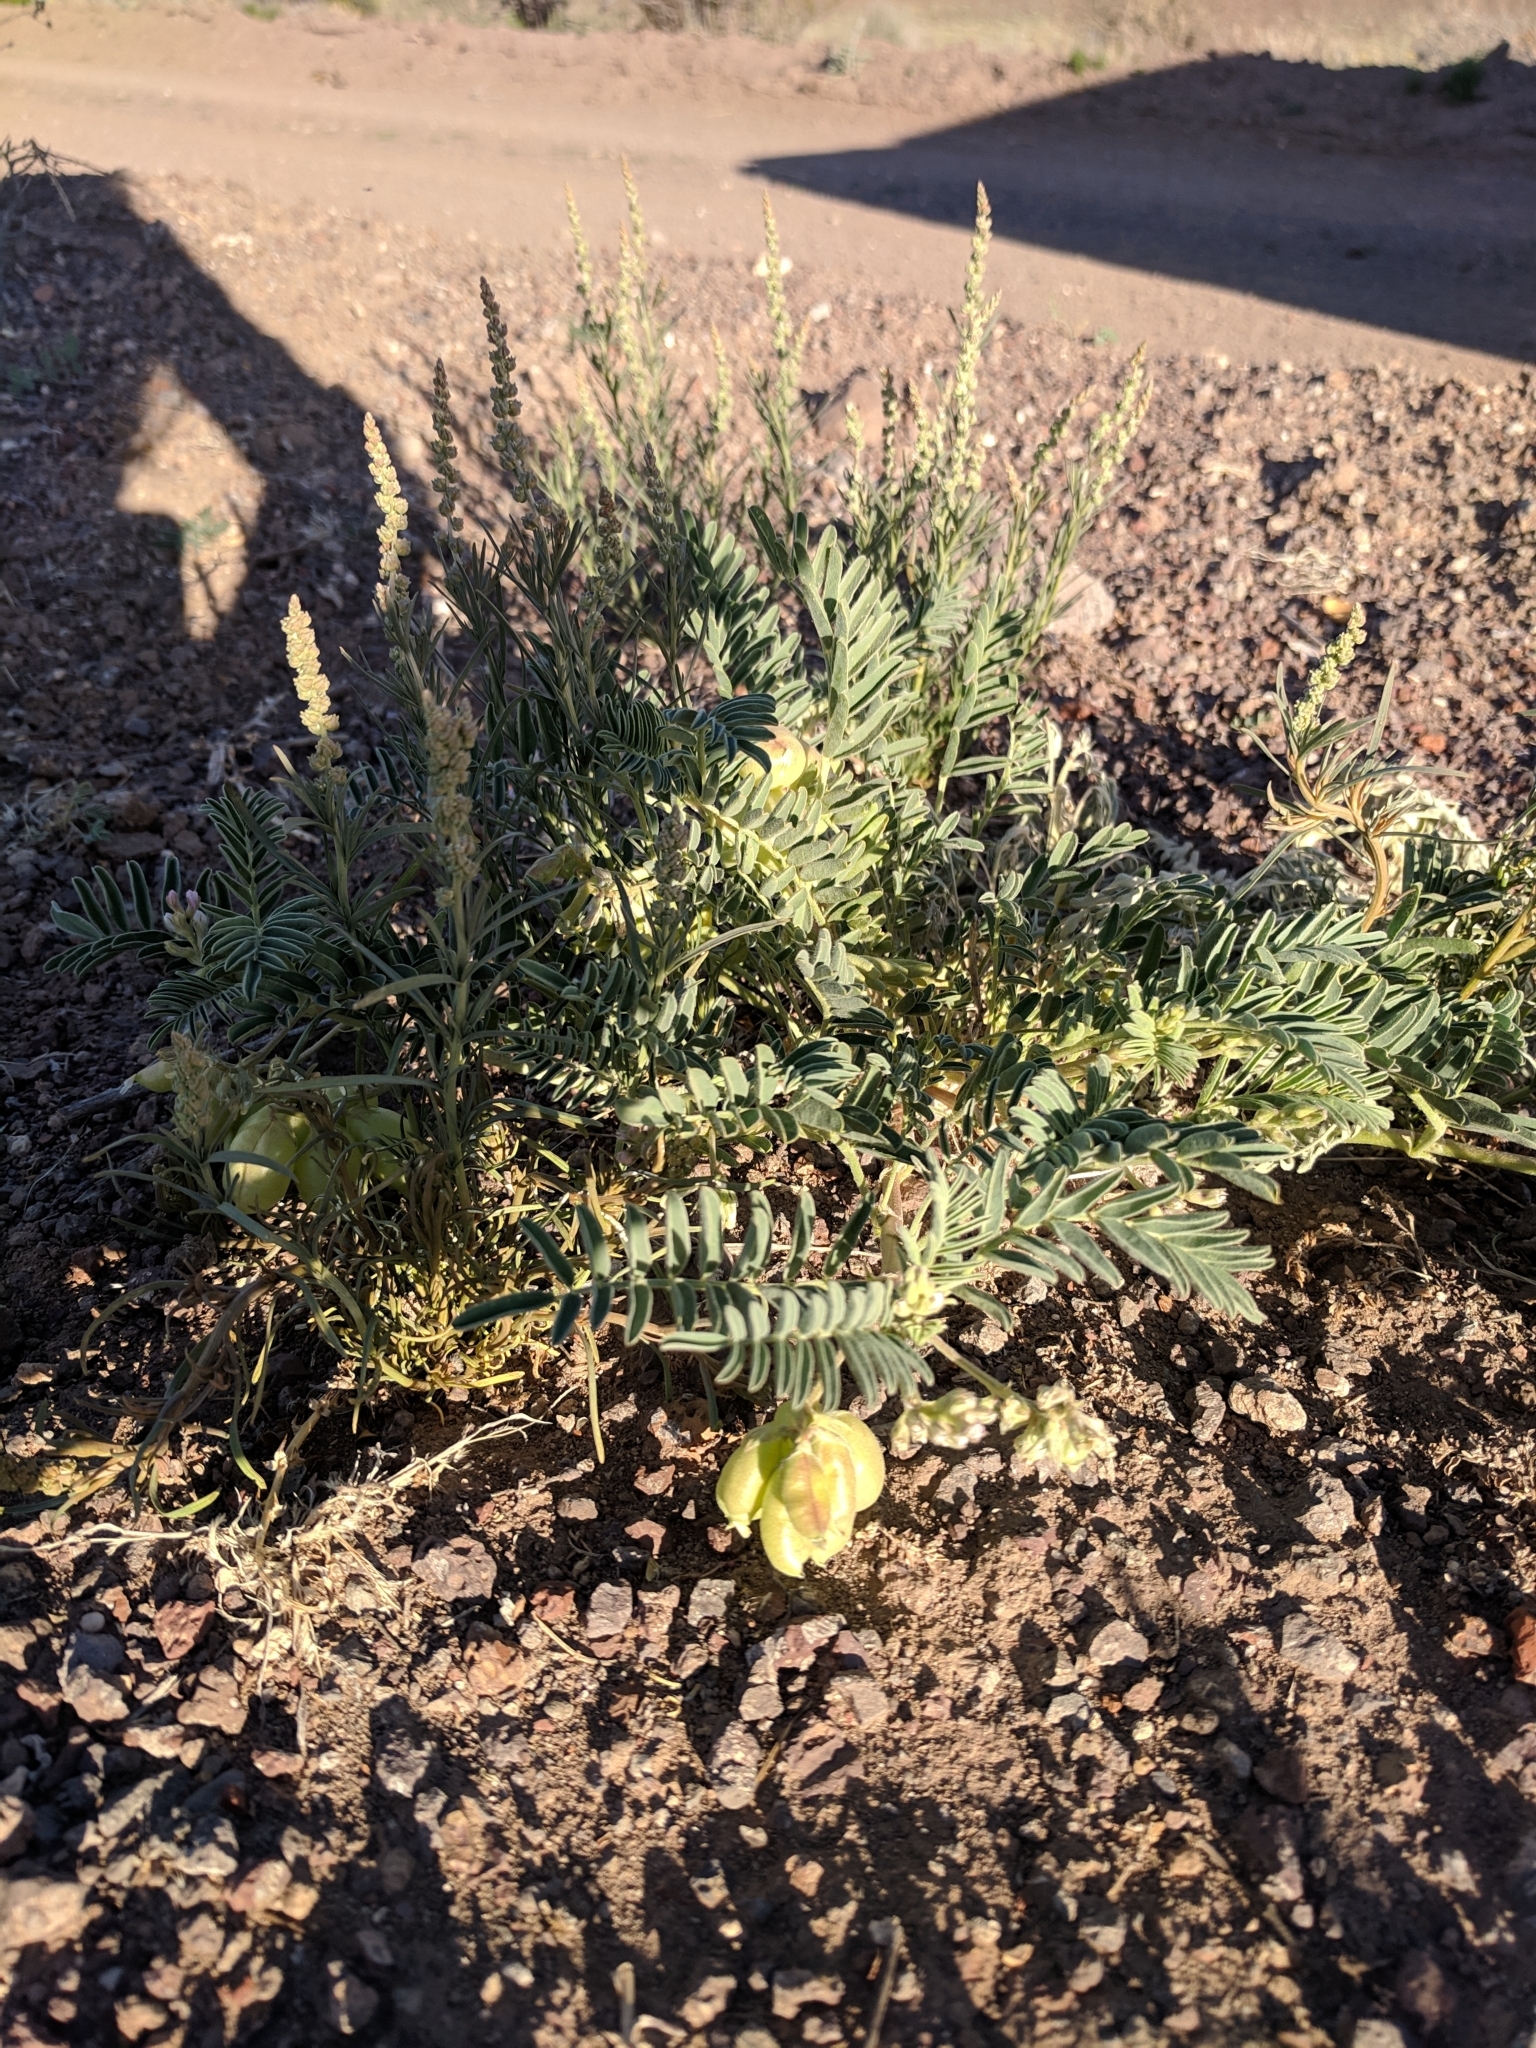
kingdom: Plantae
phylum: Tracheophyta
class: Magnoliopsida
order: Fabales
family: Fabaceae
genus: Astragalus
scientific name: Astragalus wootonii
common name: Wooton's milk-vetch
